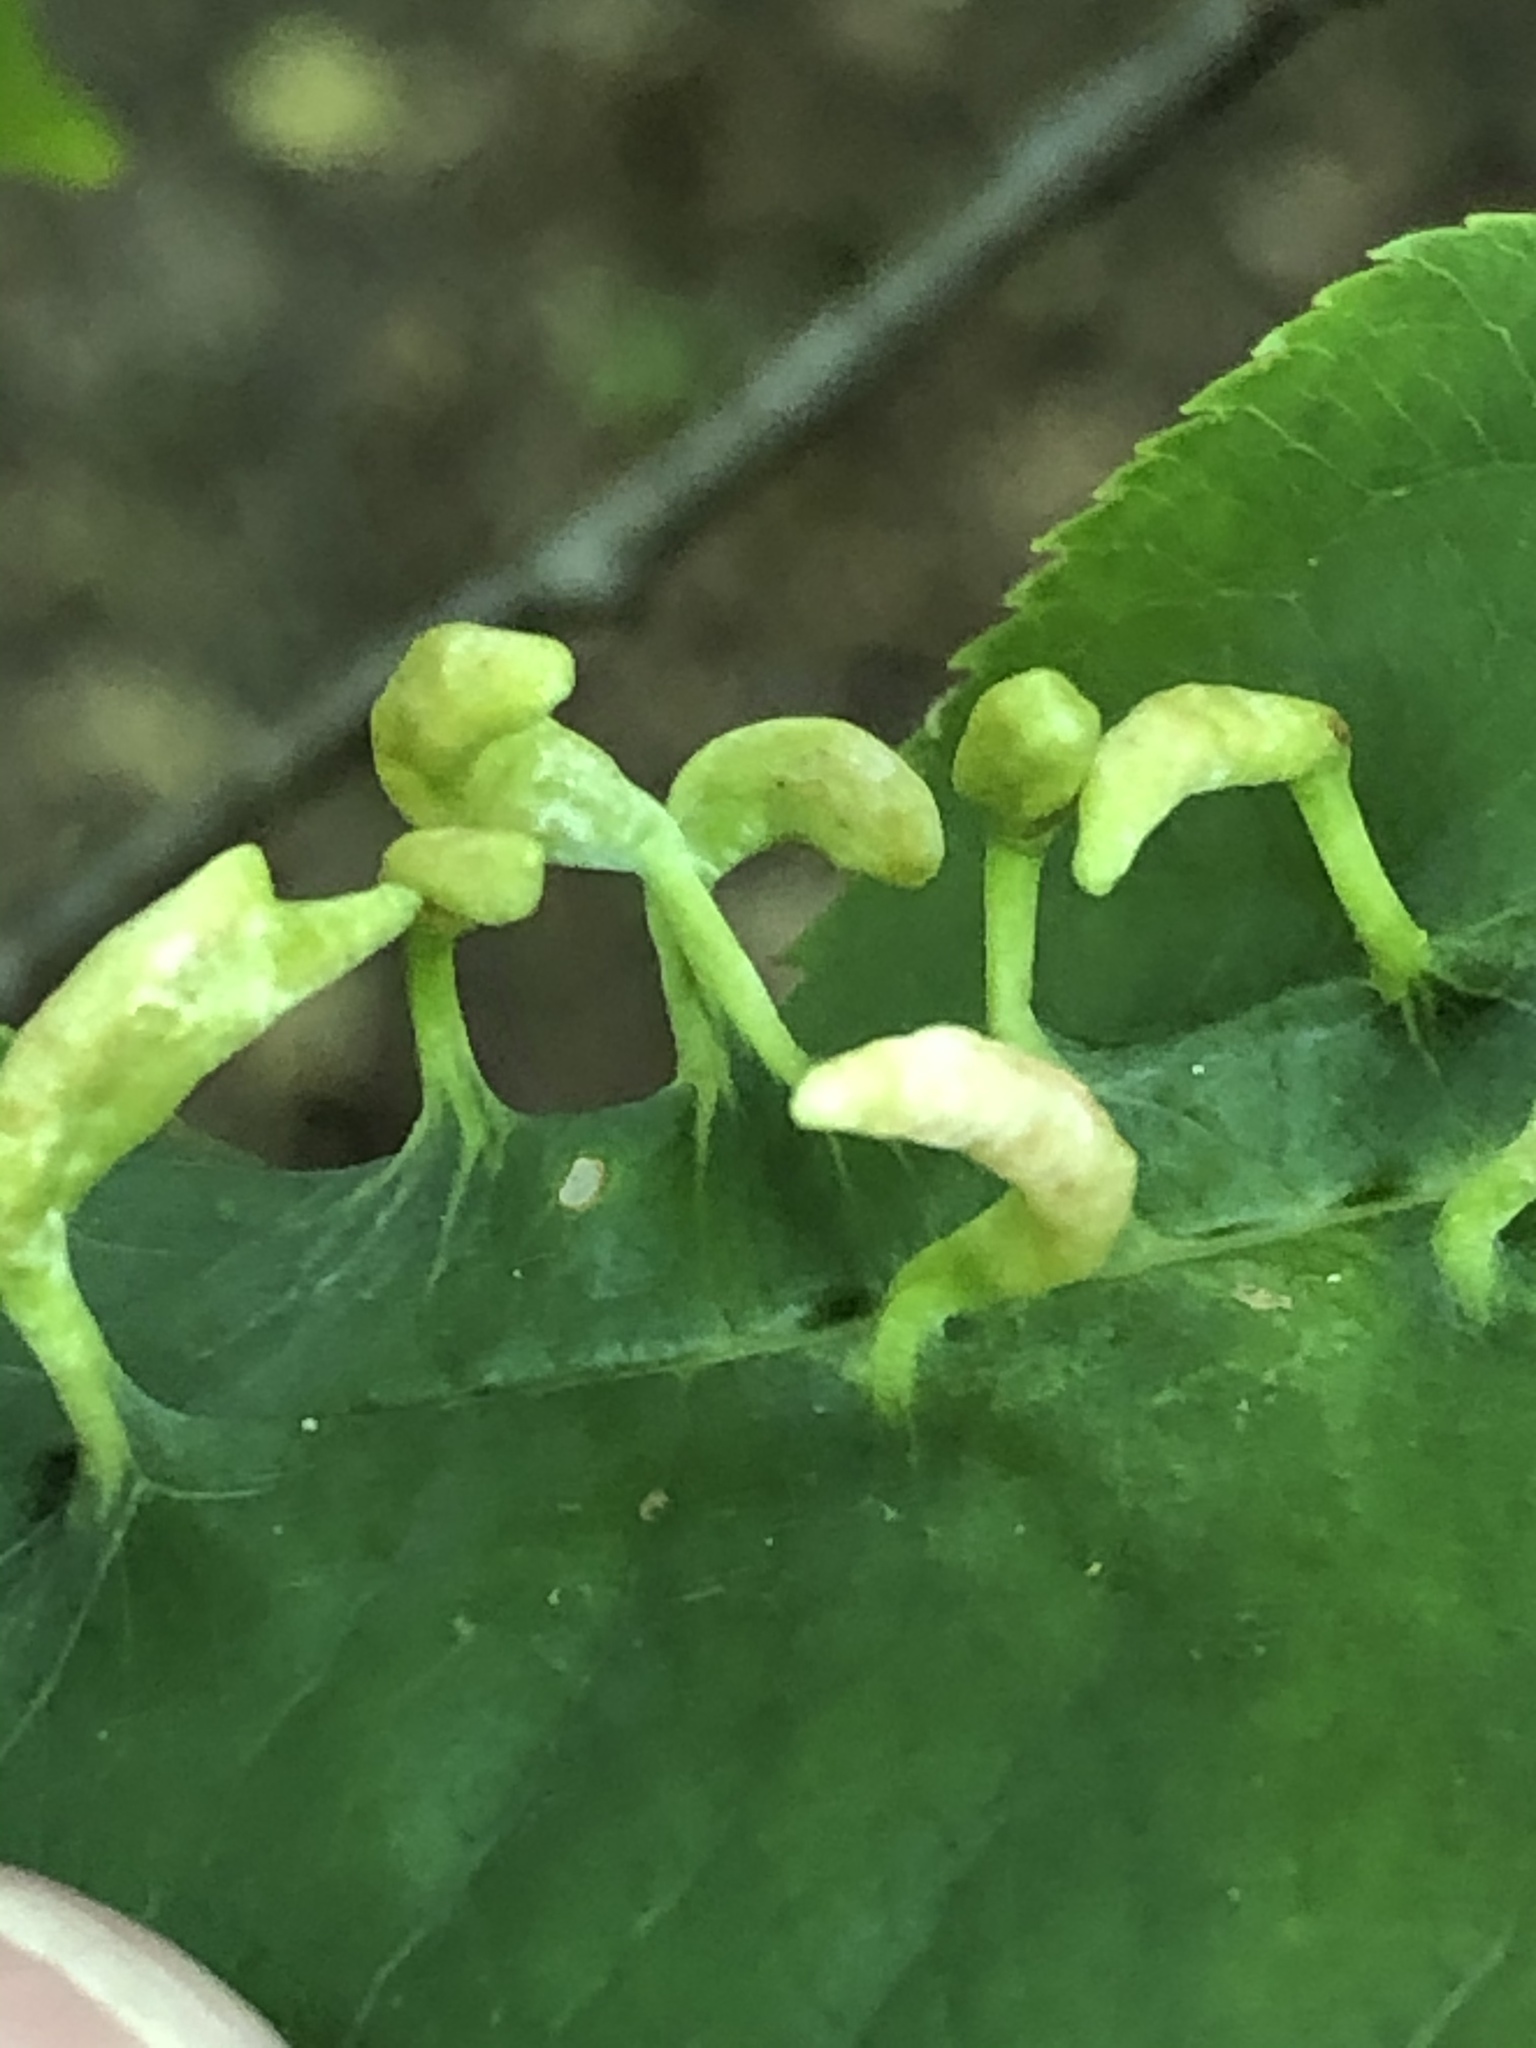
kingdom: Animalia
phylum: Arthropoda
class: Arachnida
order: Trombidiformes
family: Eriophyidae
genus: Eriophyes
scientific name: Eriophyes
